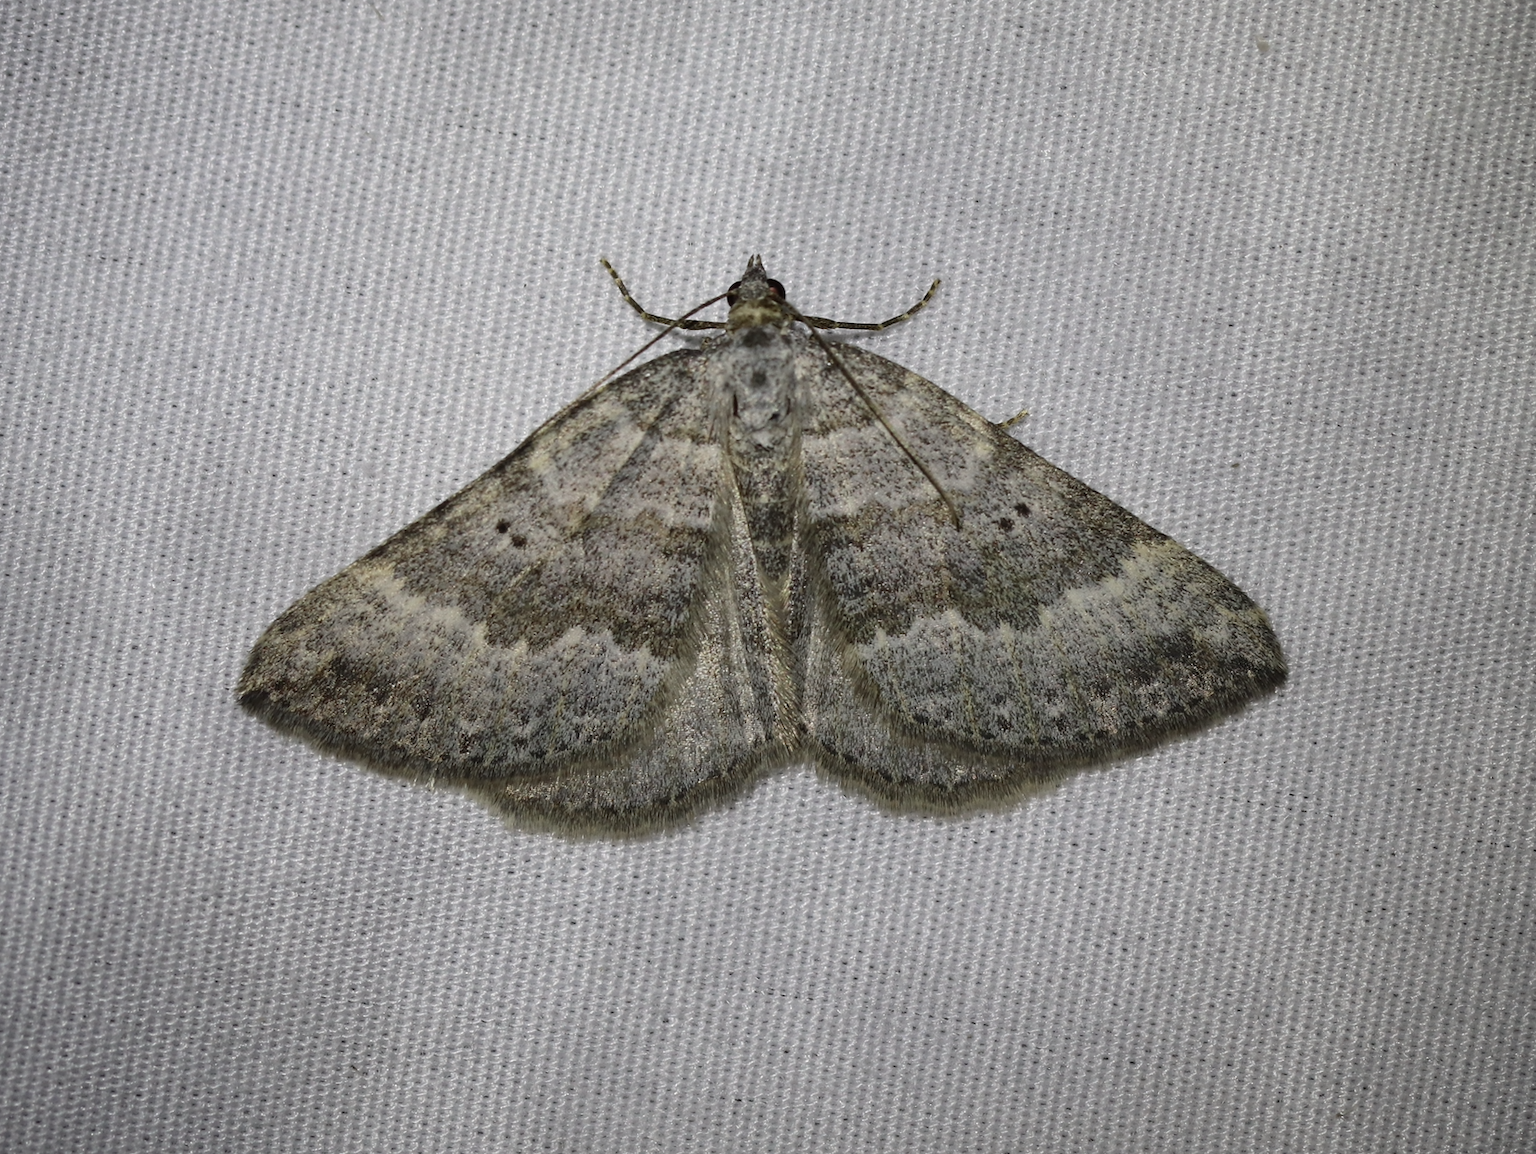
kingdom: Animalia
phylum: Arthropoda
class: Insecta
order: Lepidoptera
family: Geometridae
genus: Scotopteryx
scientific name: Scotopteryx bipunctaria
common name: Chalk carpet
